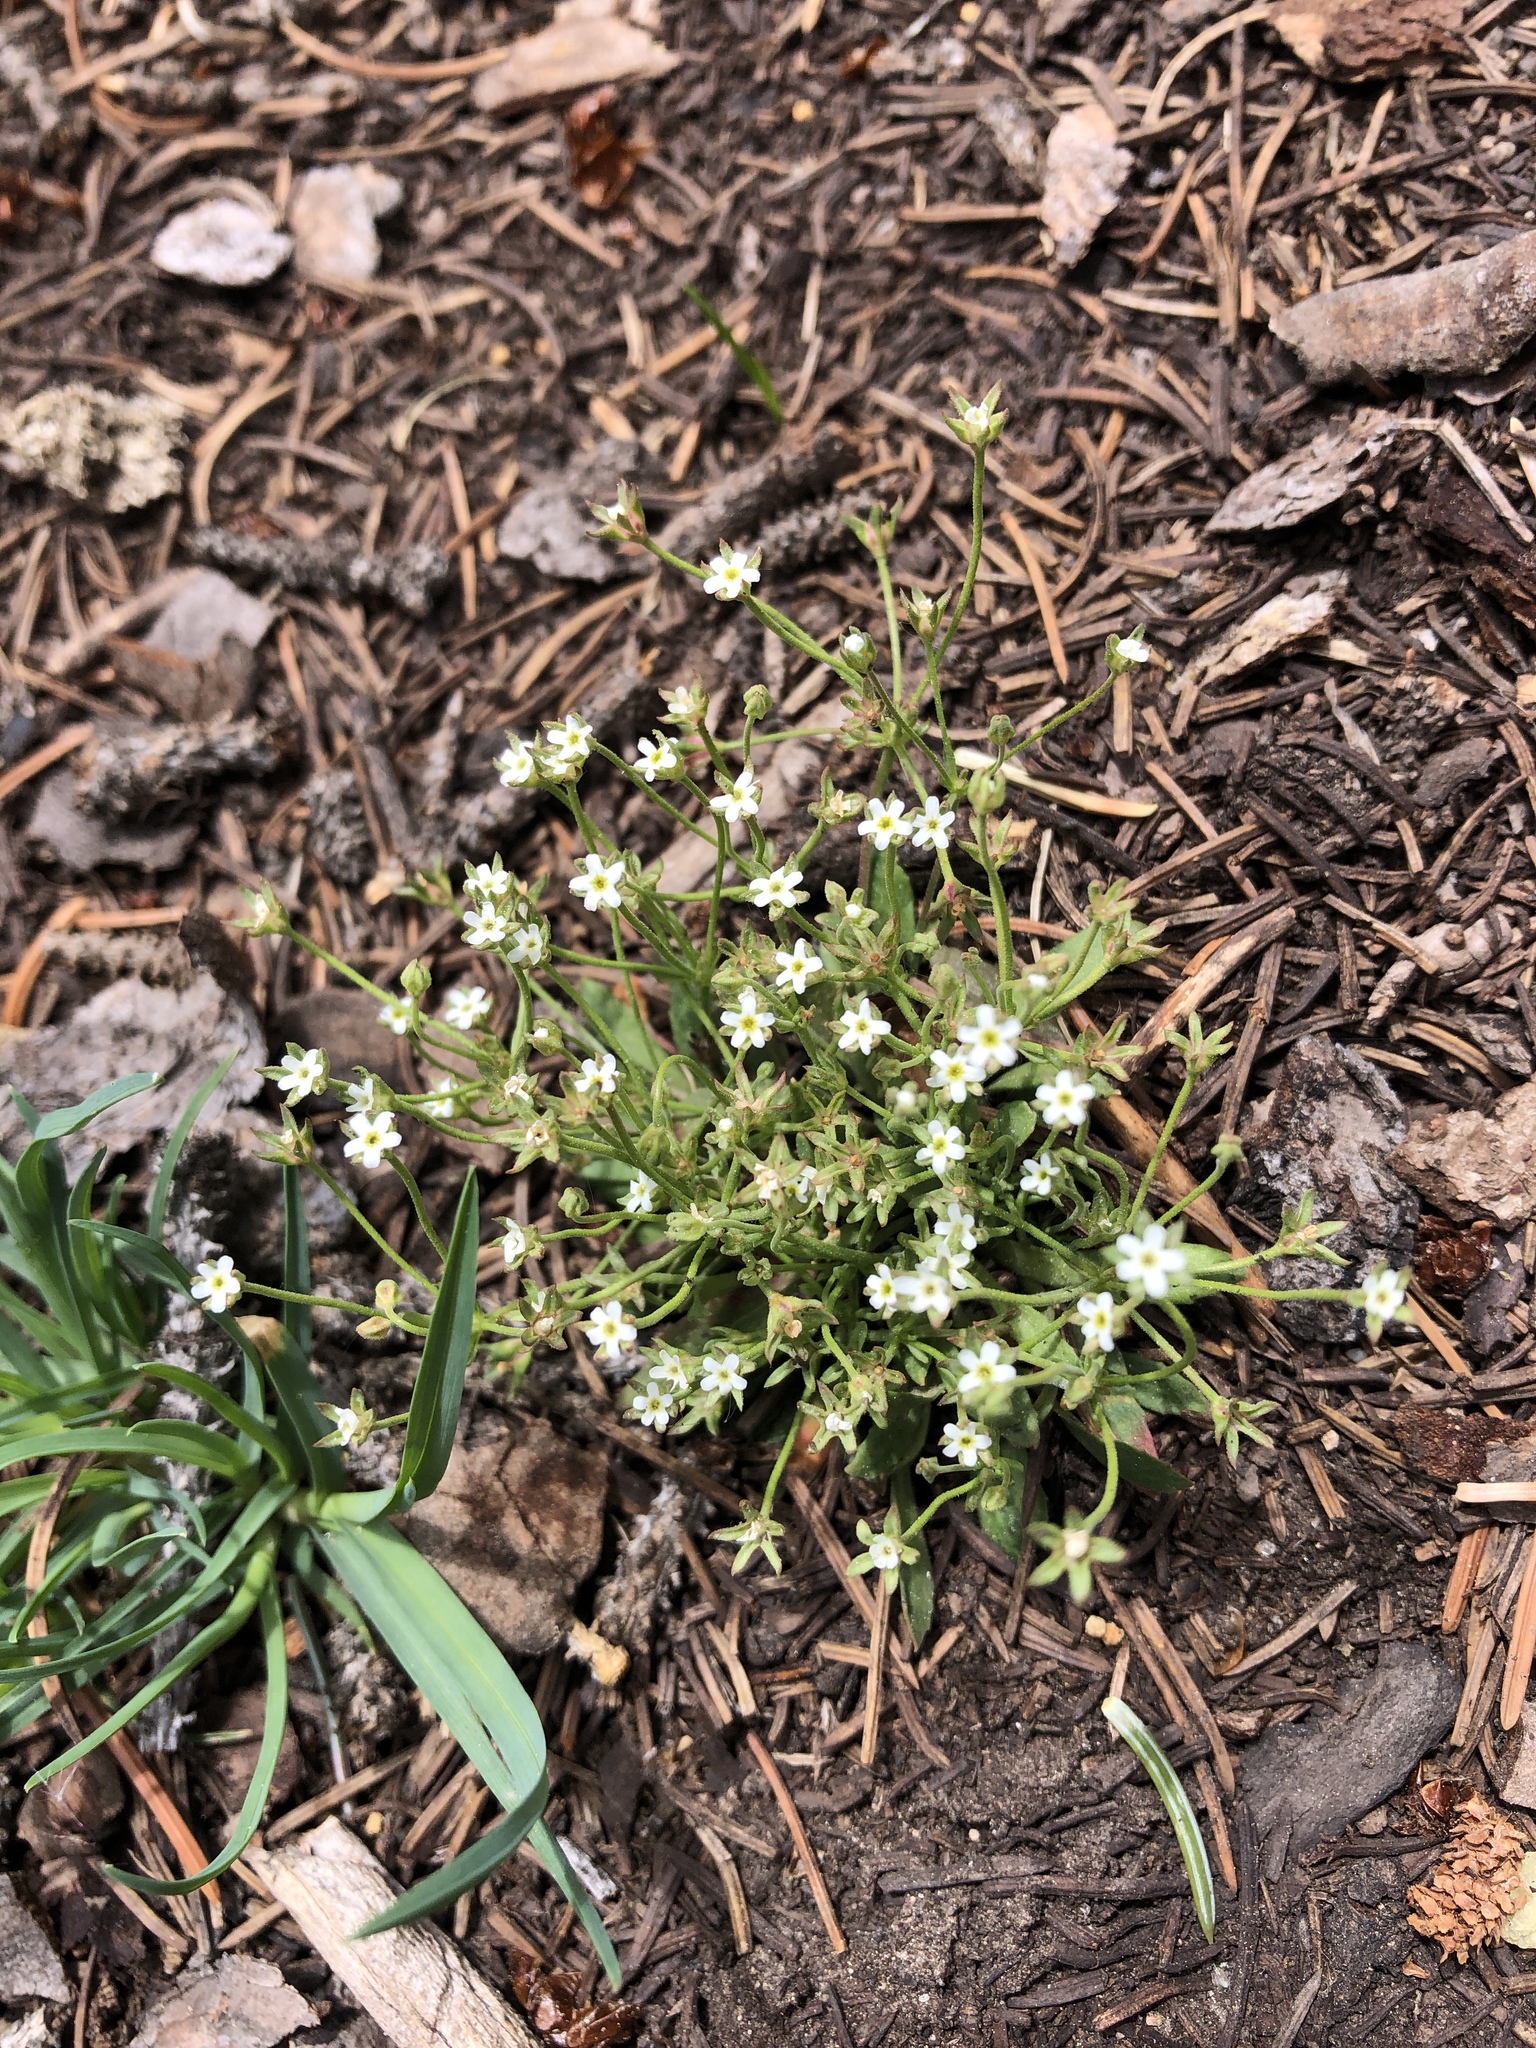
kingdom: Plantae
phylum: Tracheophyta
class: Magnoliopsida
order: Ericales
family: Primulaceae
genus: Androsace
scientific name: Androsace septentrionalis
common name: Hairy northern fairy-candelabra
